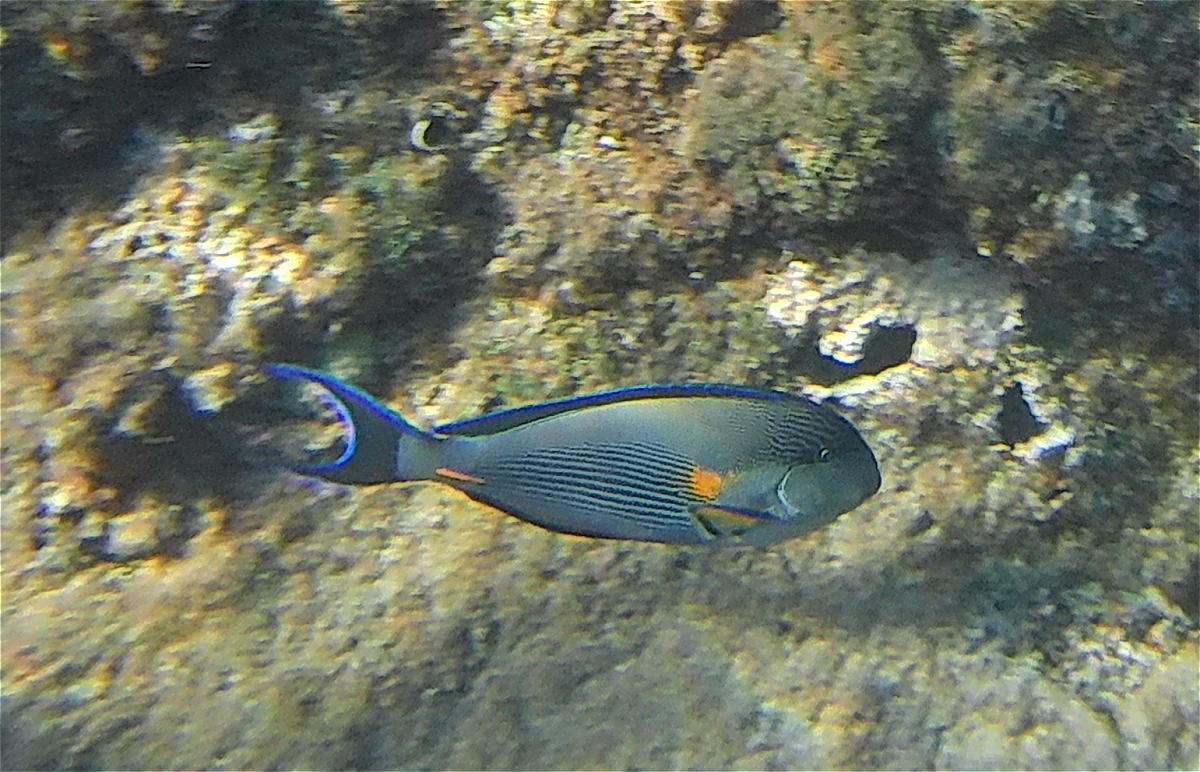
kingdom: Animalia
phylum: Chordata
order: Perciformes
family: Acanthuridae
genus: Acanthurus
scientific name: Acanthurus sohal
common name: Red sea surgeonfish
